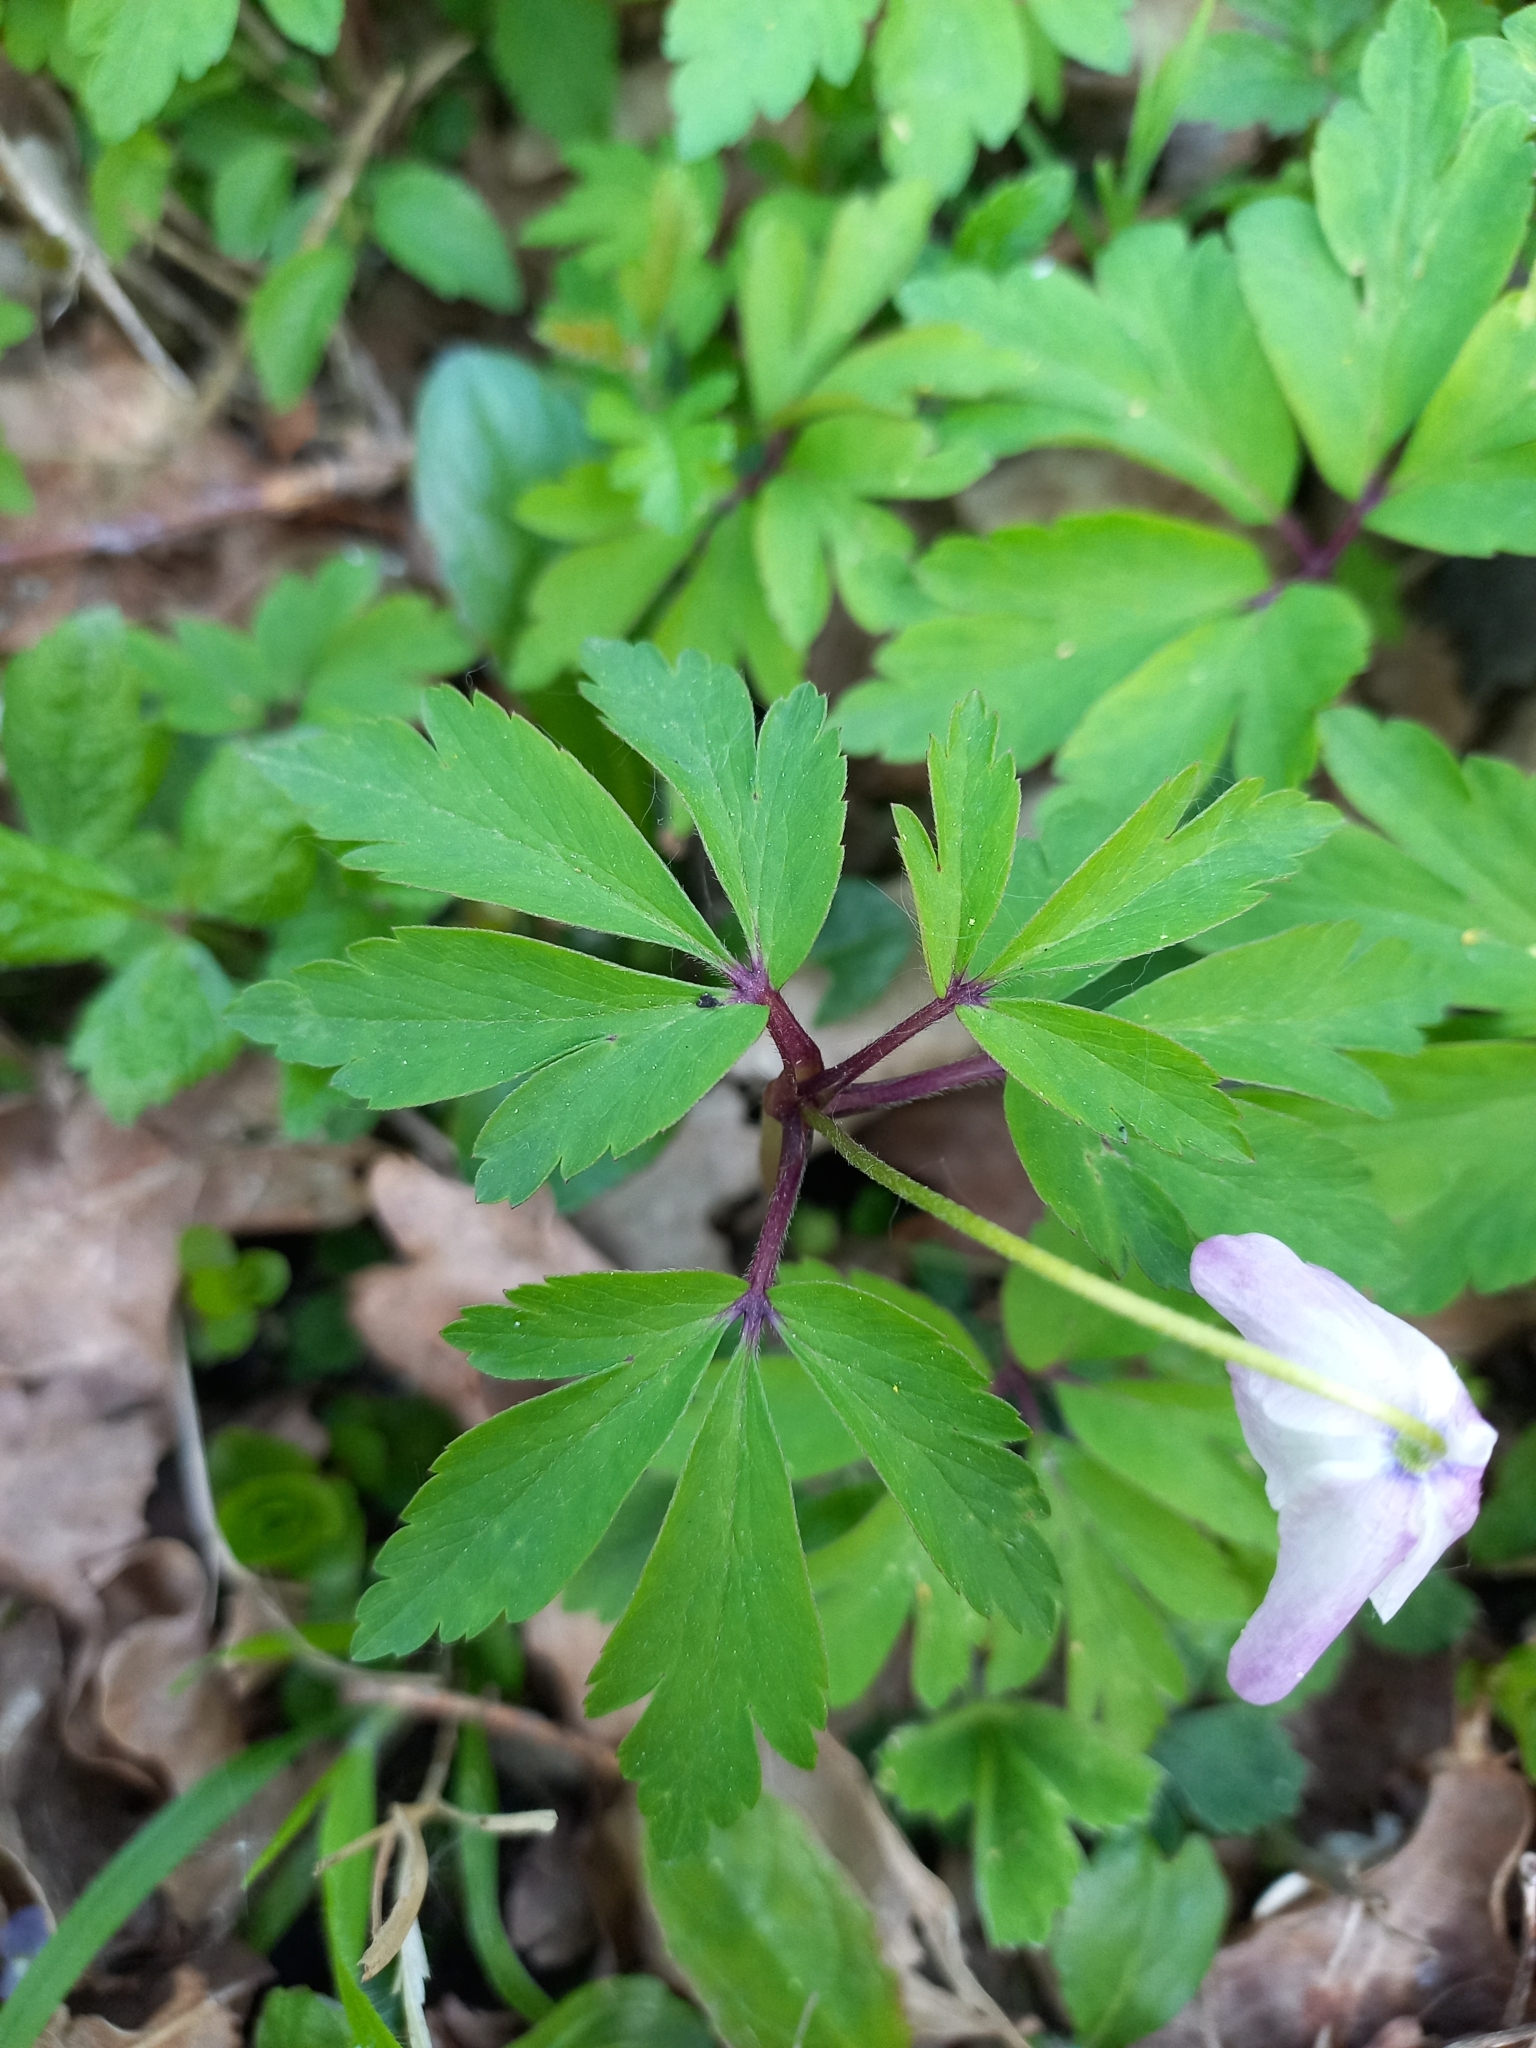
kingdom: Plantae
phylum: Tracheophyta
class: Magnoliopsida
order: Ranunculales
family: Ranunculaceae
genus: Anemone
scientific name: Anemone nemorosa
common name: Wood anemone
